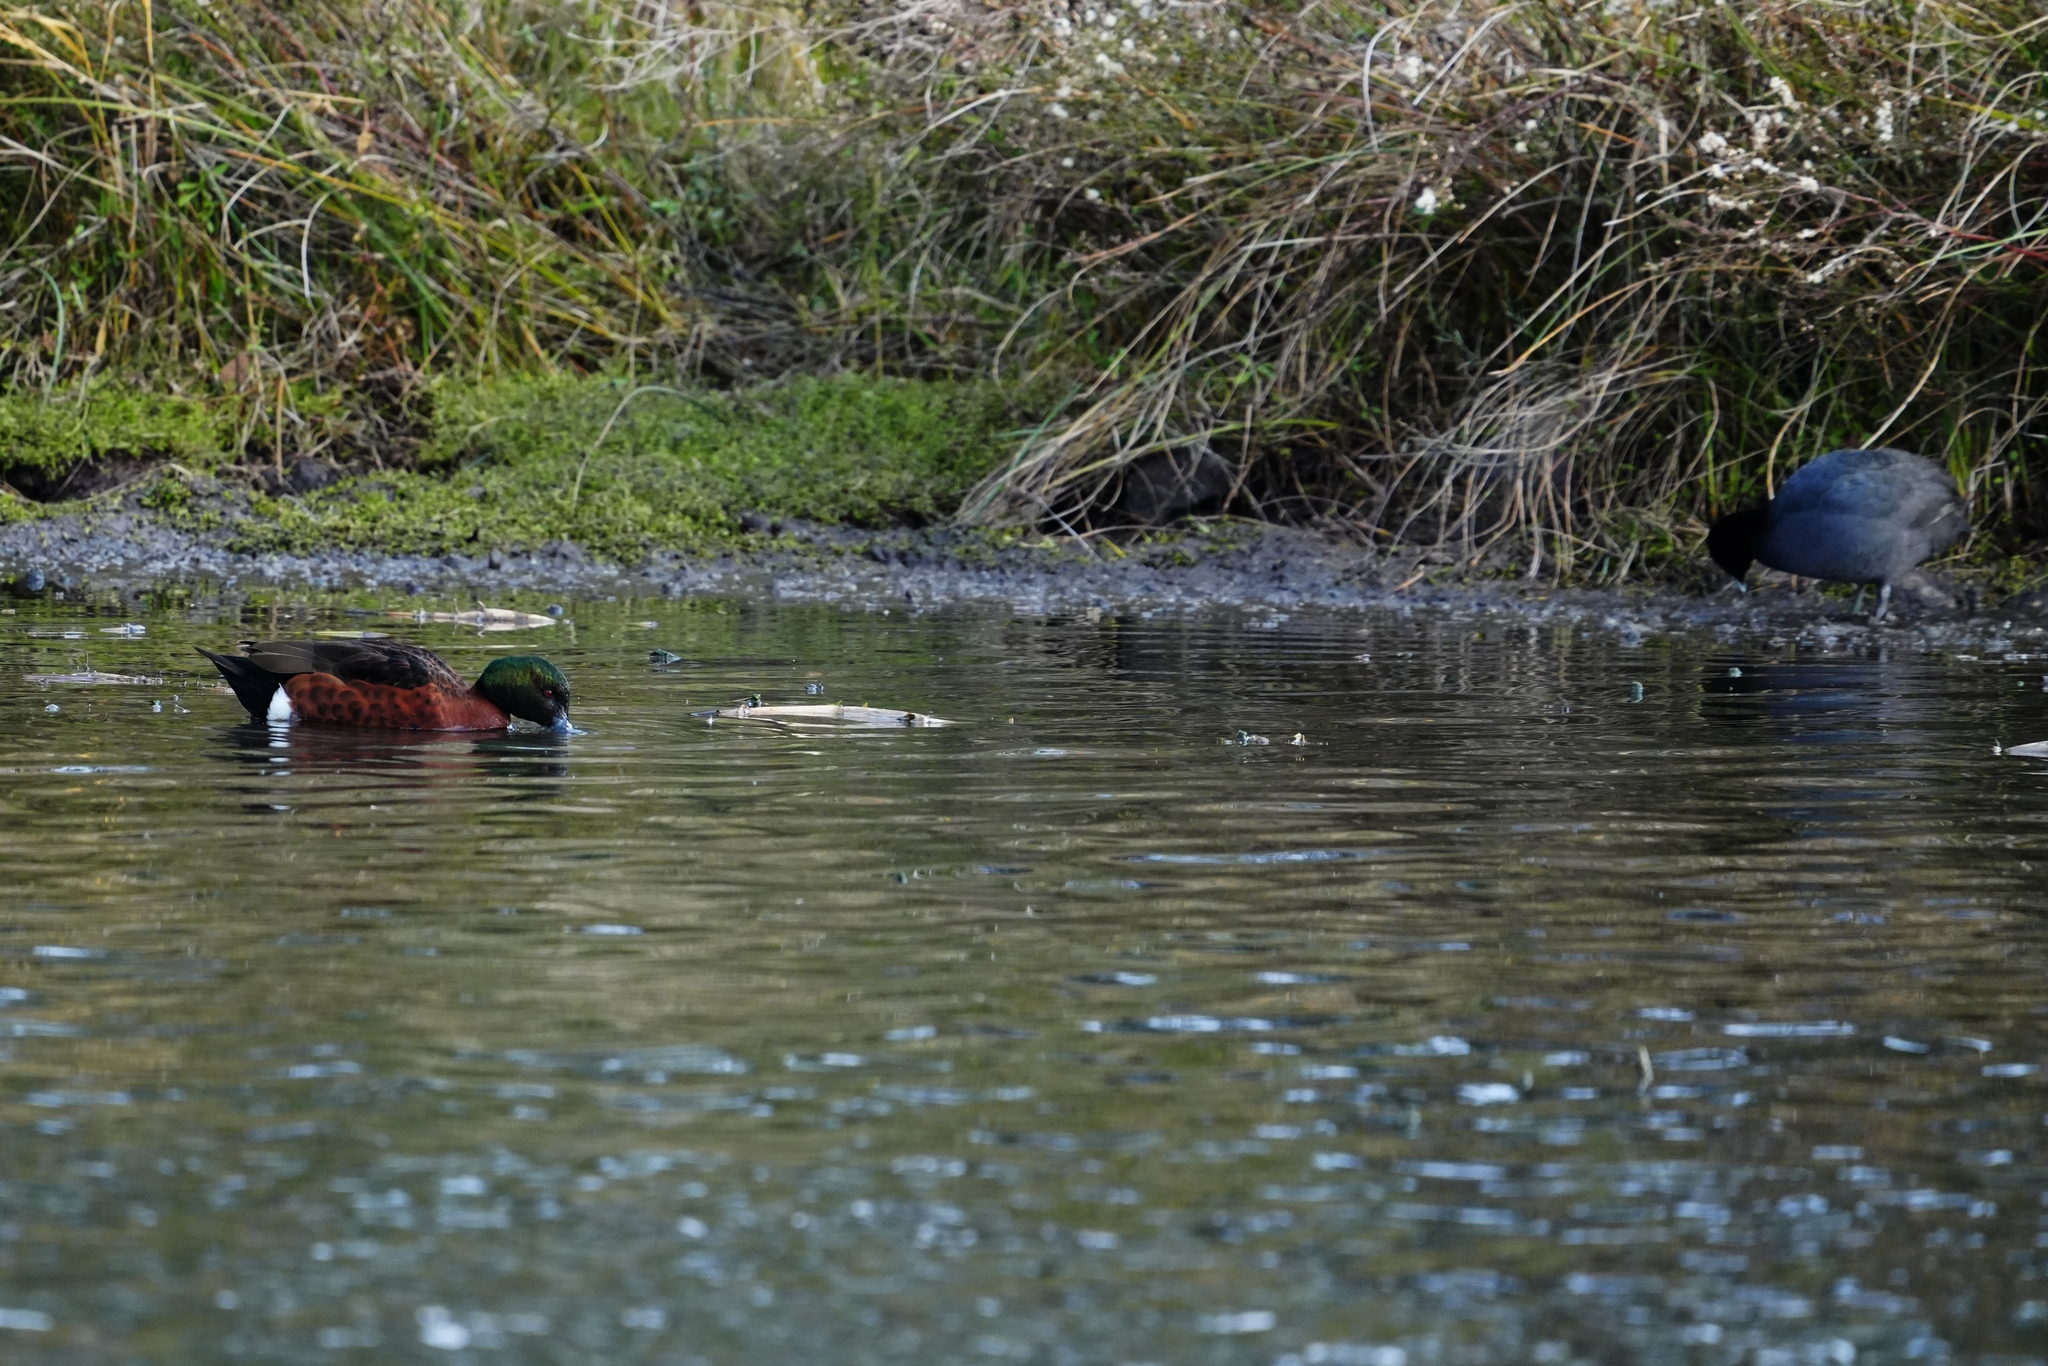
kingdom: Animalia
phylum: Chordata
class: Aves
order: Anseriformes
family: Anatidae
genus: Anas
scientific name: Anas castanea
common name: Chestnut teal
